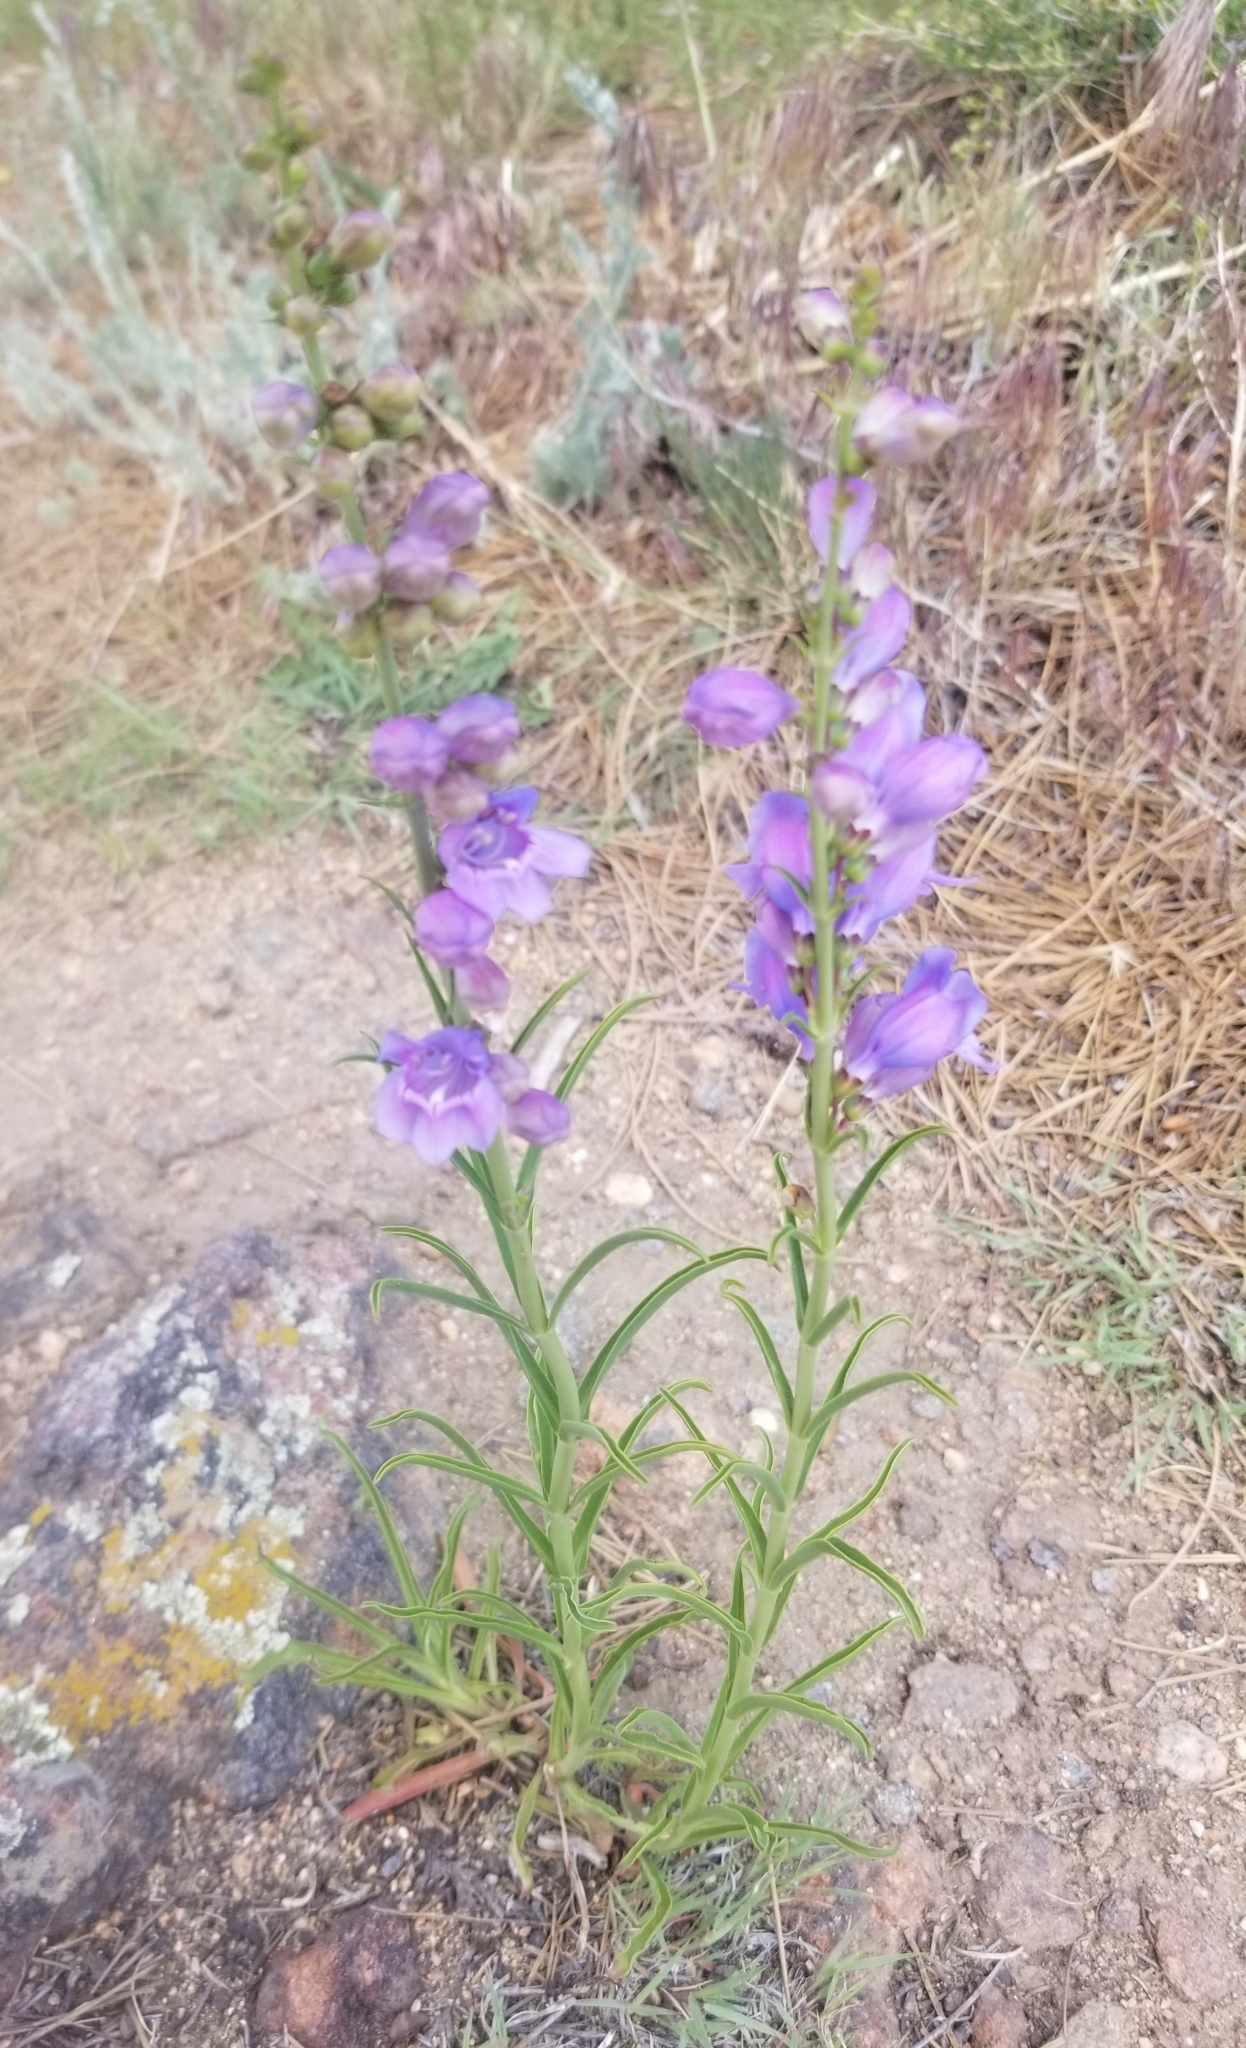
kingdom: Plantae
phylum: Tracheophyta
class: Magnoliopsida
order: Lamiales
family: Plantaginaceae
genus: Penstemon
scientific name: Penstemon virgatus
